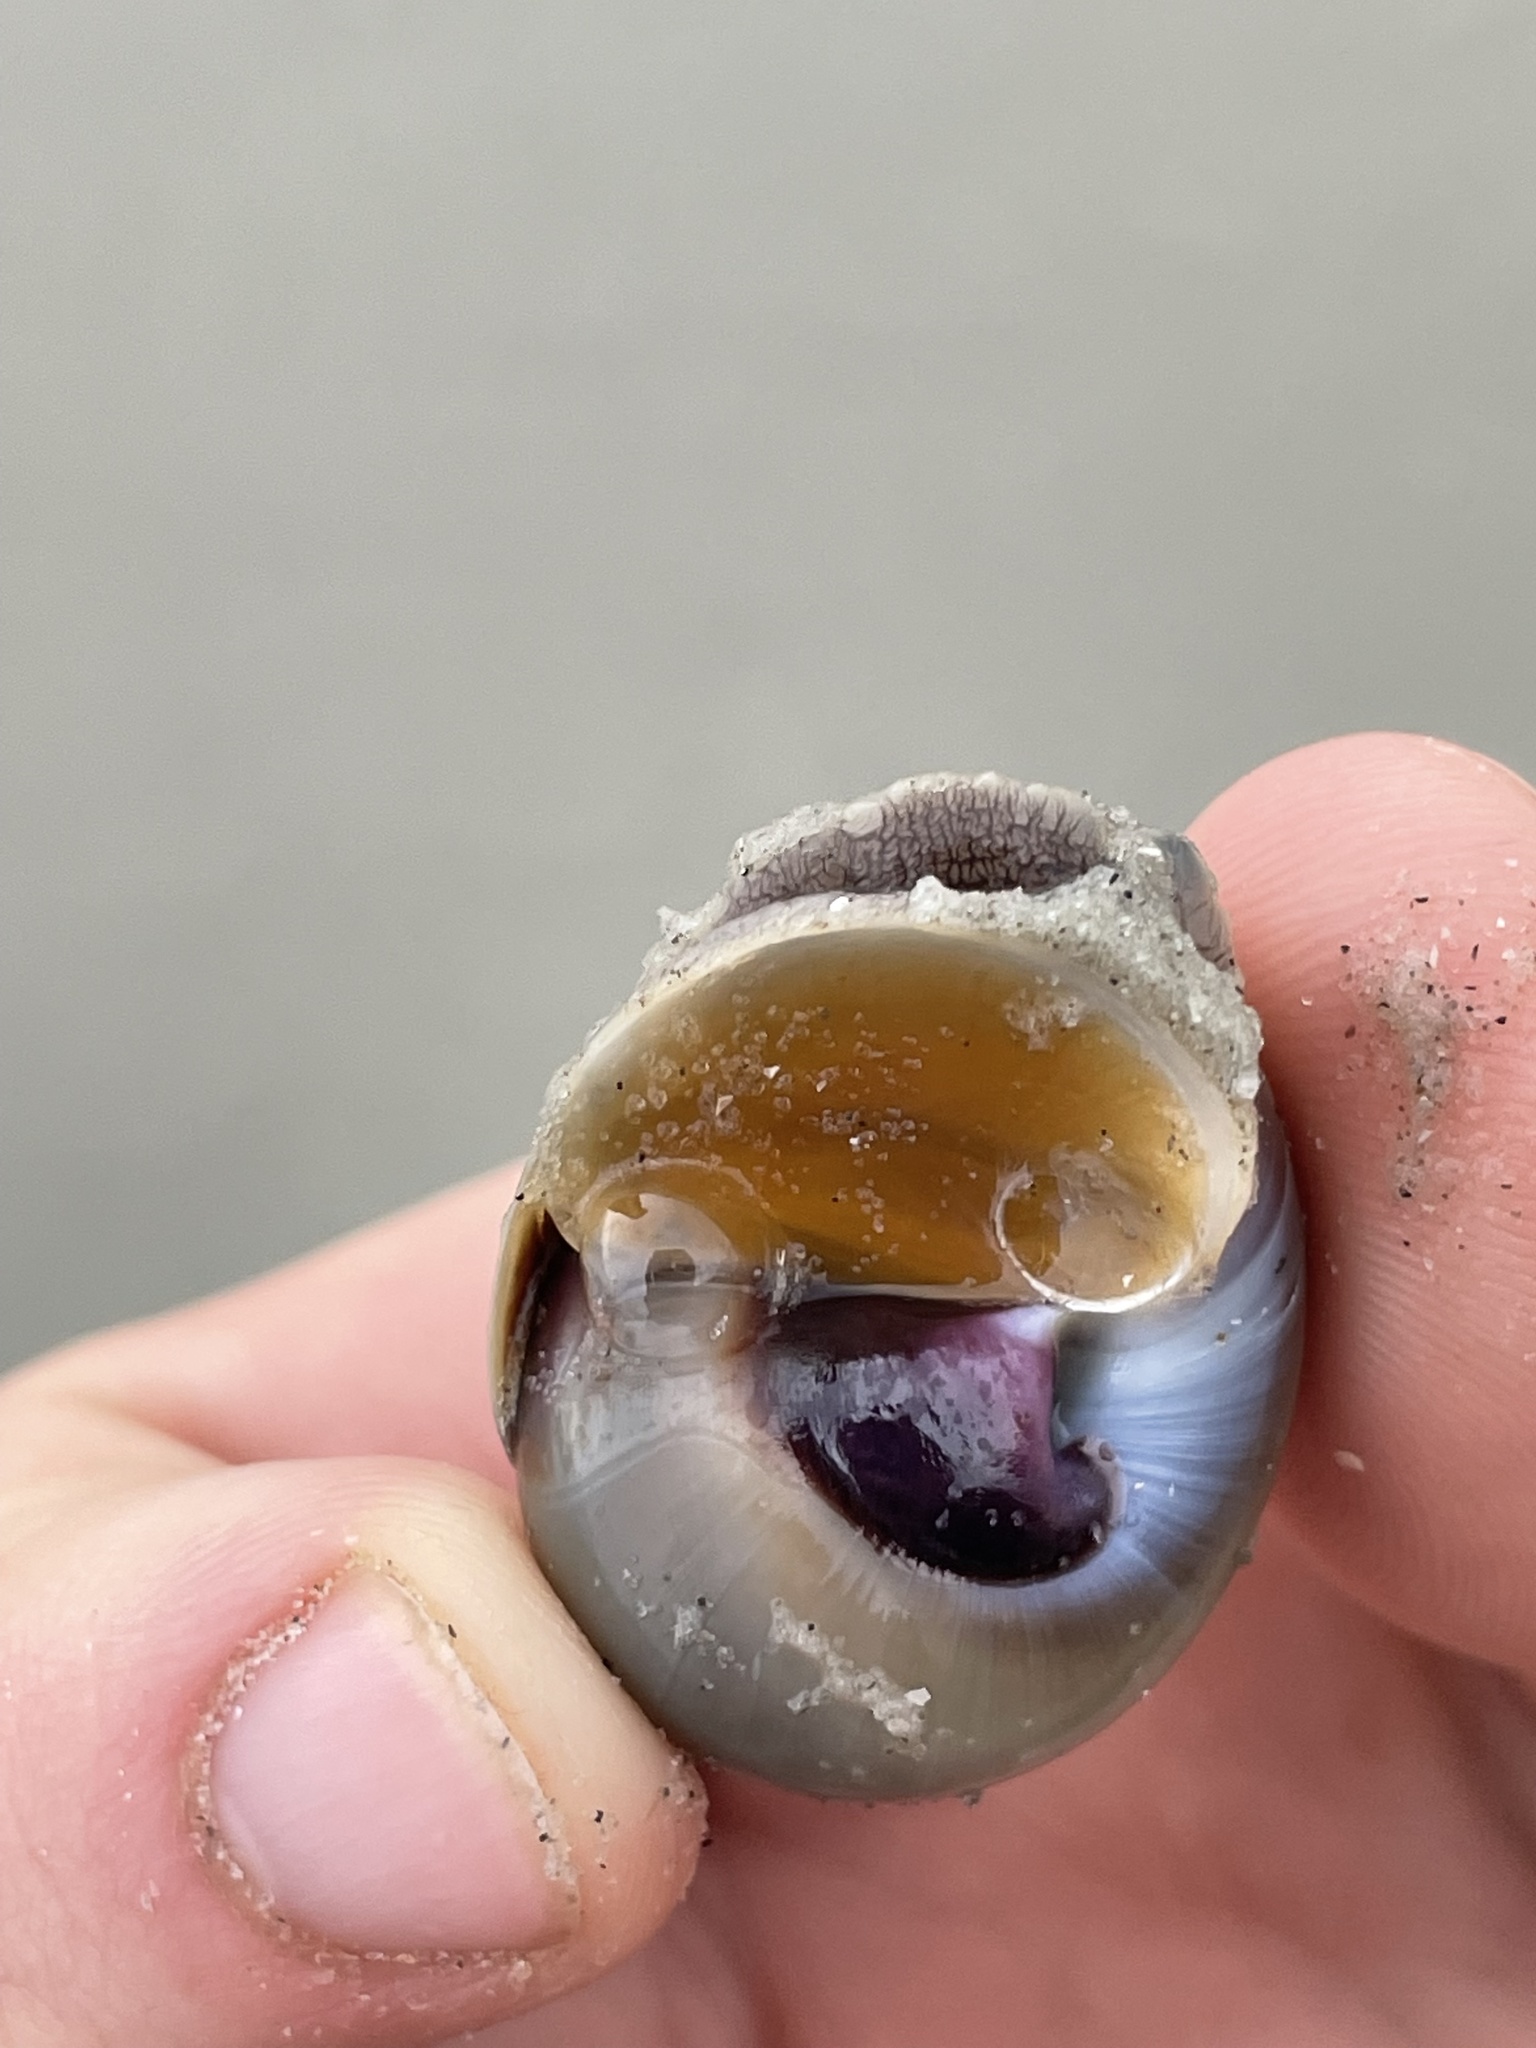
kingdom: Animalia
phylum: Mollusca
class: Gastropoda
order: Littorinimorpha
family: Naticidae
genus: Neverita
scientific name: Neverita duplicata
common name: Lobed moonsnail
